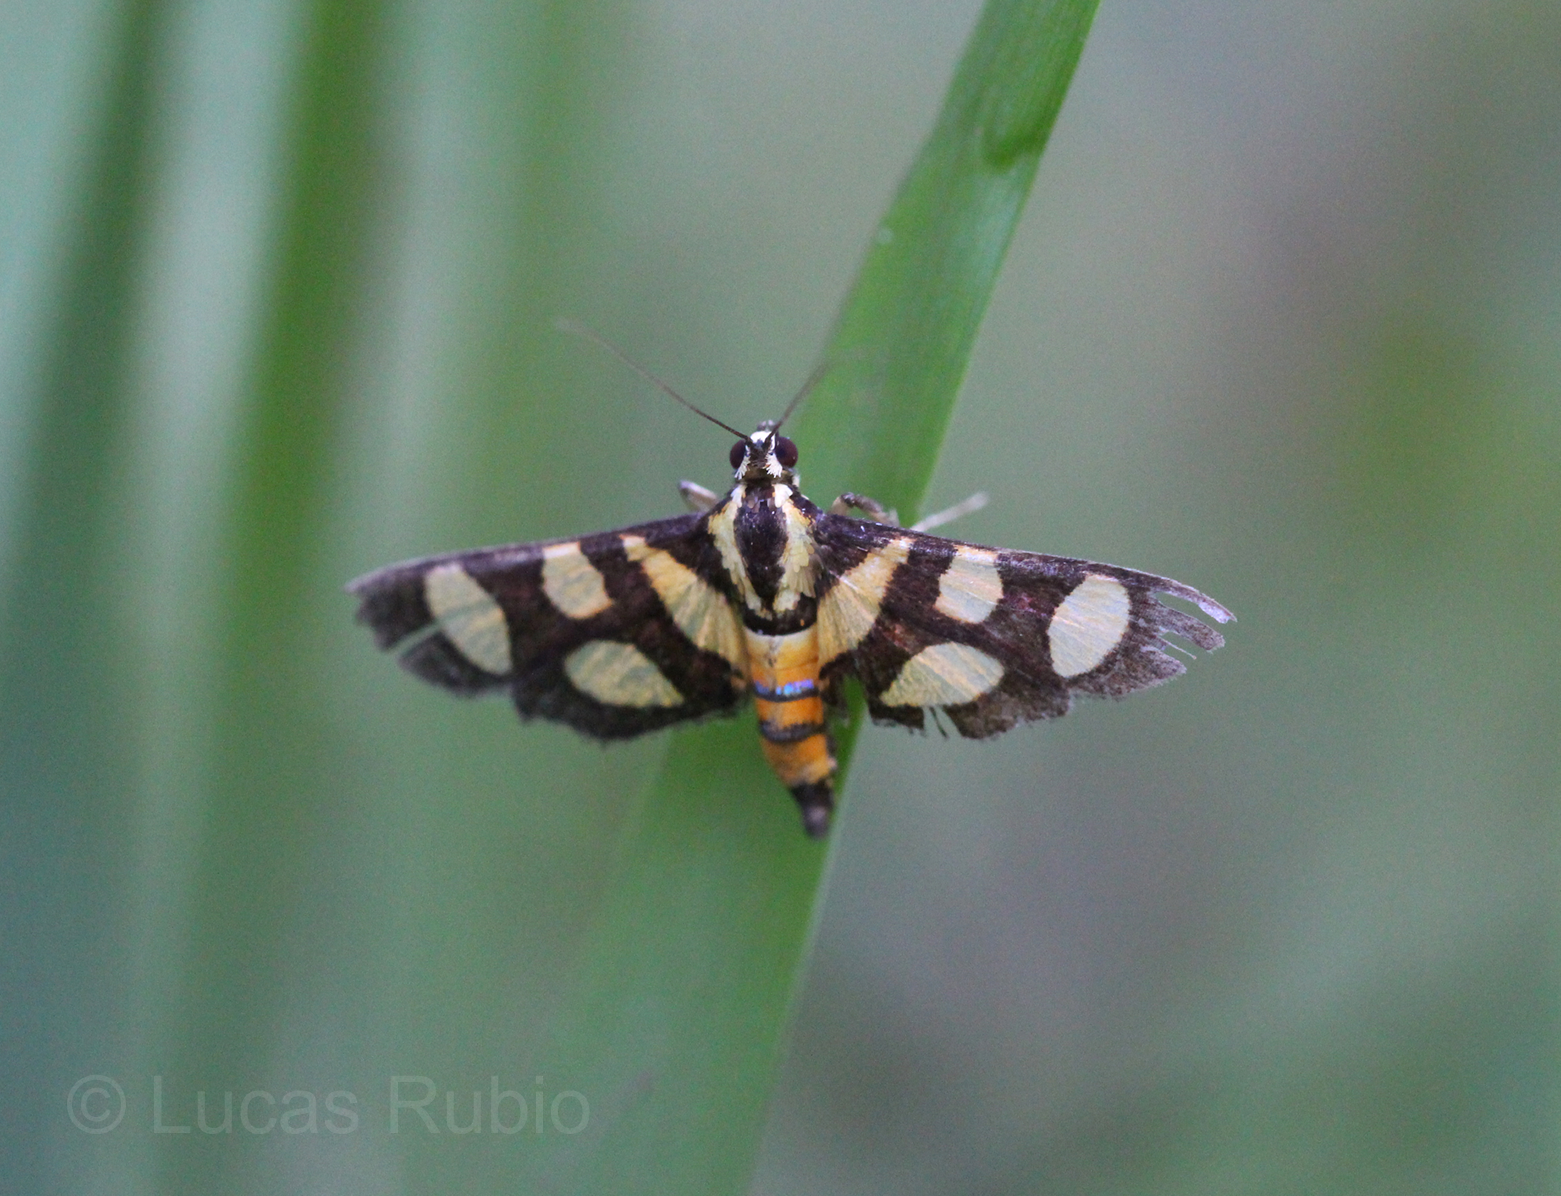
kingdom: Animalia
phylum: Arthropoda
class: Insecta
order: Lepidoptera
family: Crambidae
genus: Syngamia
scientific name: Syngamia florella
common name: Orange-spotted flower moth
